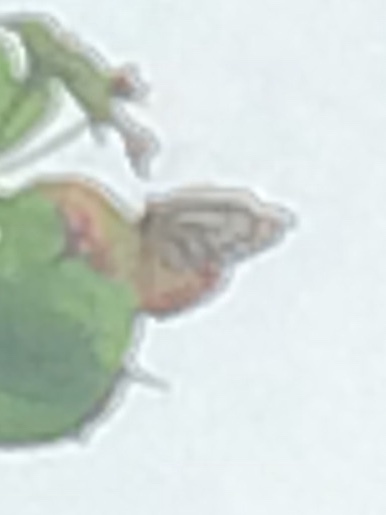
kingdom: Animalia
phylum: Arthropoda
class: Insecta
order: Lepidoptera
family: Pieridae
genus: Delias
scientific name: Delias eucharis
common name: Common jezebel
